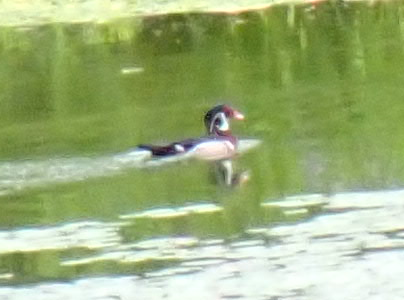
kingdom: Animalia
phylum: Chordata
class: Aves
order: Anseriformes
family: Anatidae
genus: Aix
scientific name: Aix sponsa
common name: Wood duck
